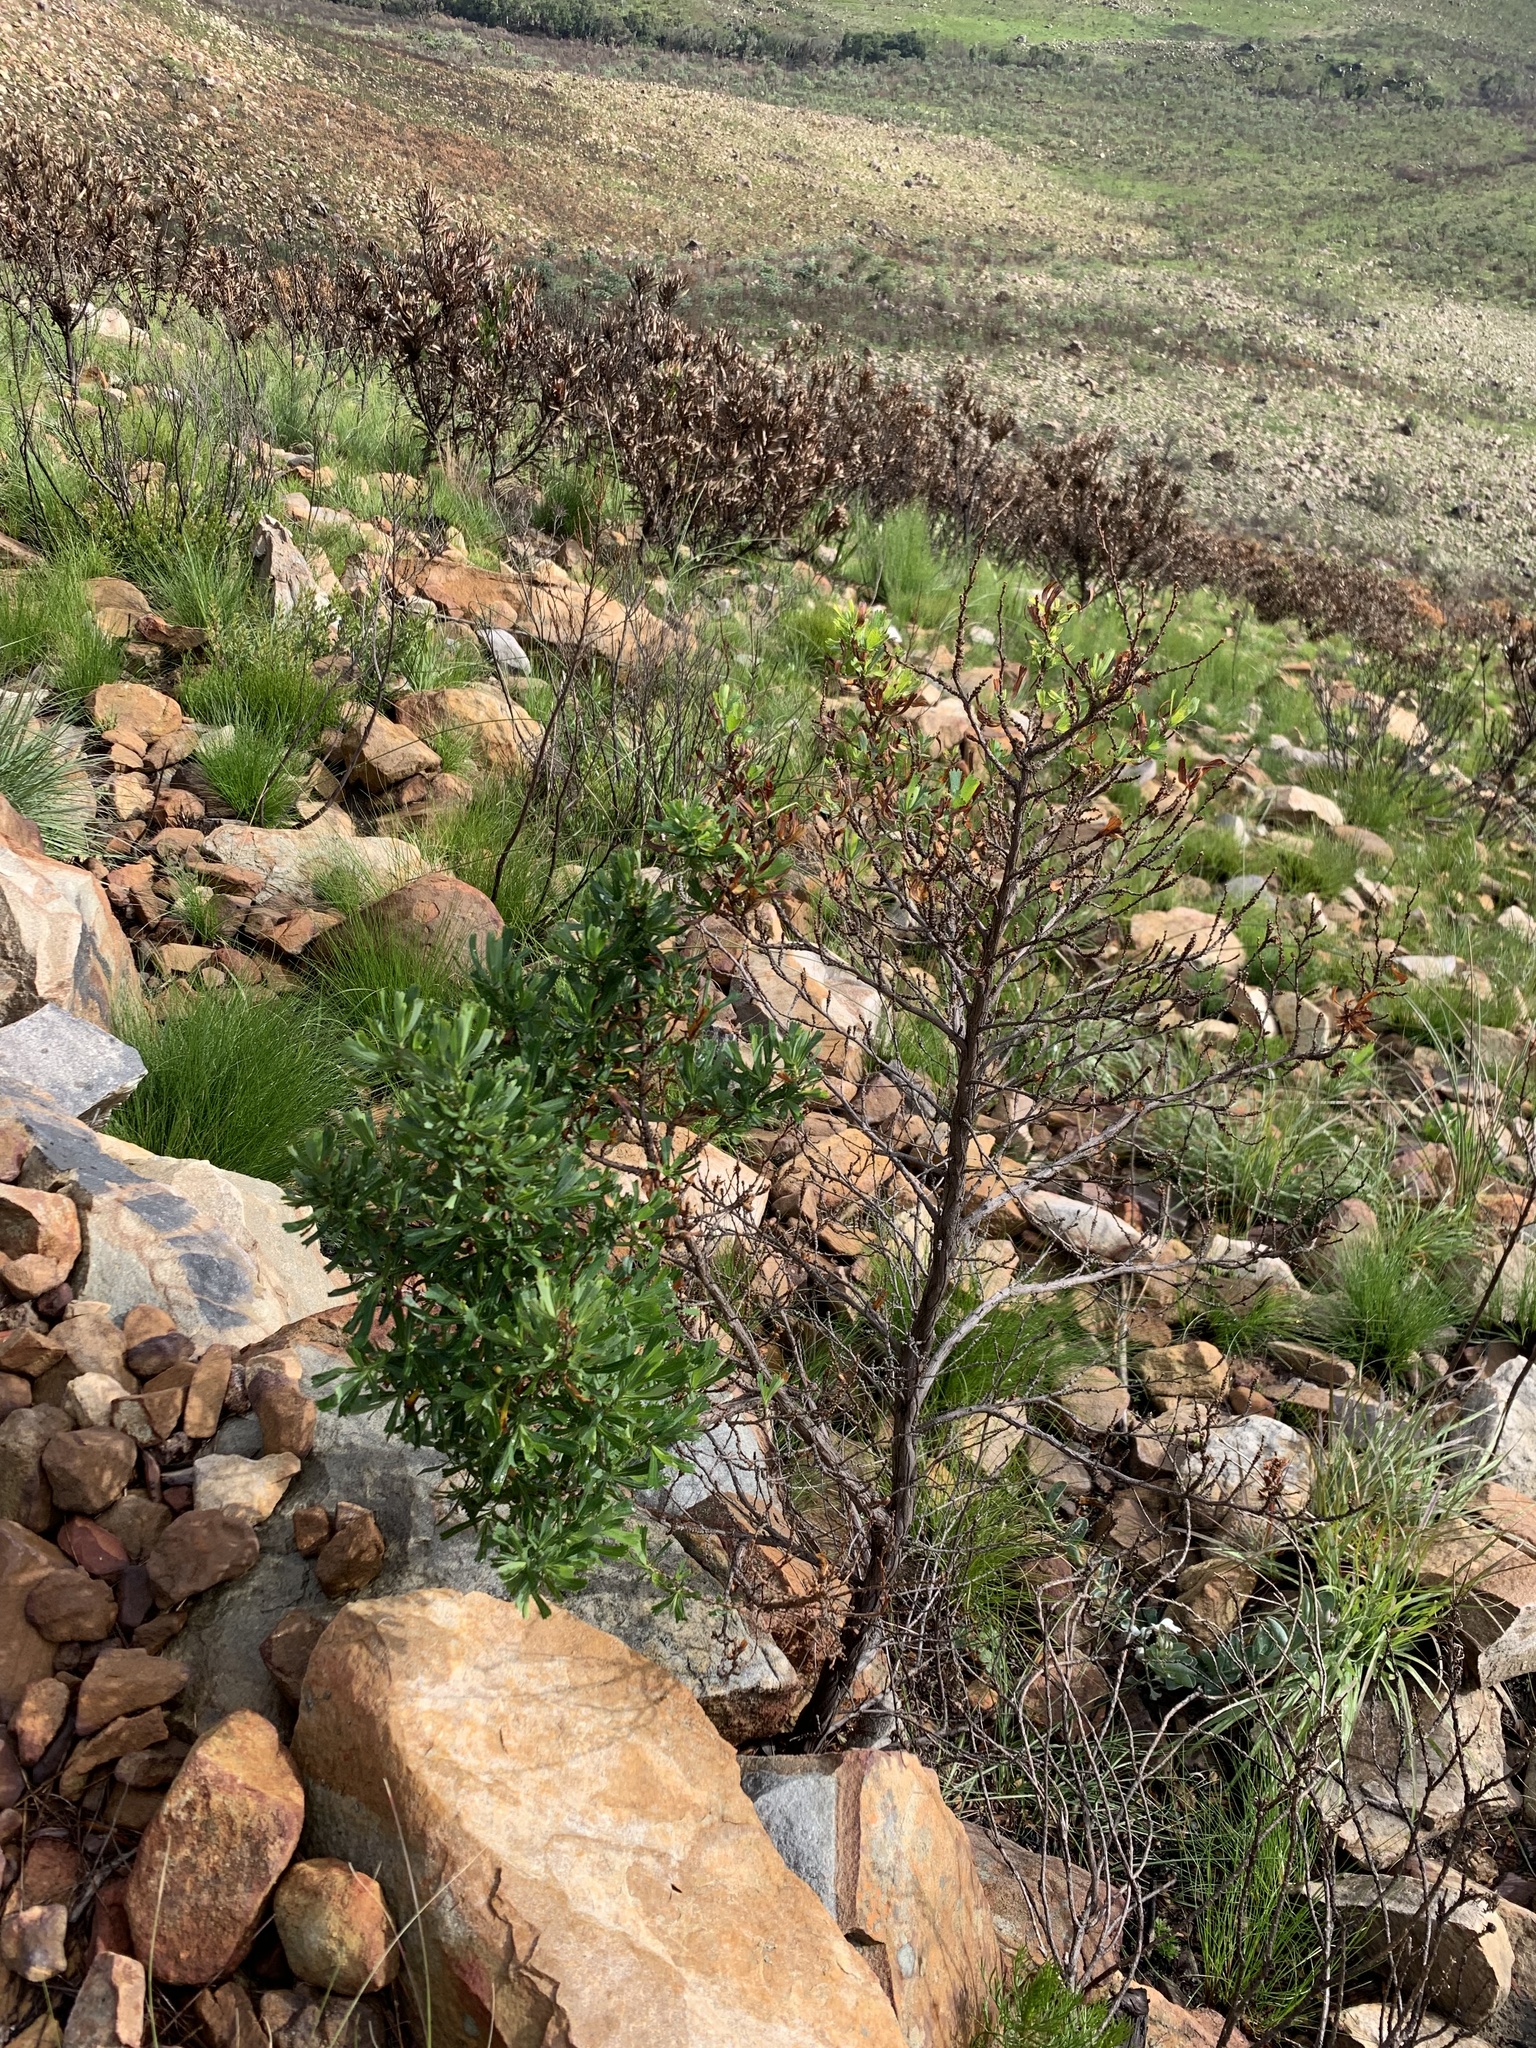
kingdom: Plantae
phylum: Tracheophyta
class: Magnoliopsida
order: Rosales
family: Rosaceae
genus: Cliffortia
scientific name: Cliffortia cuneata
